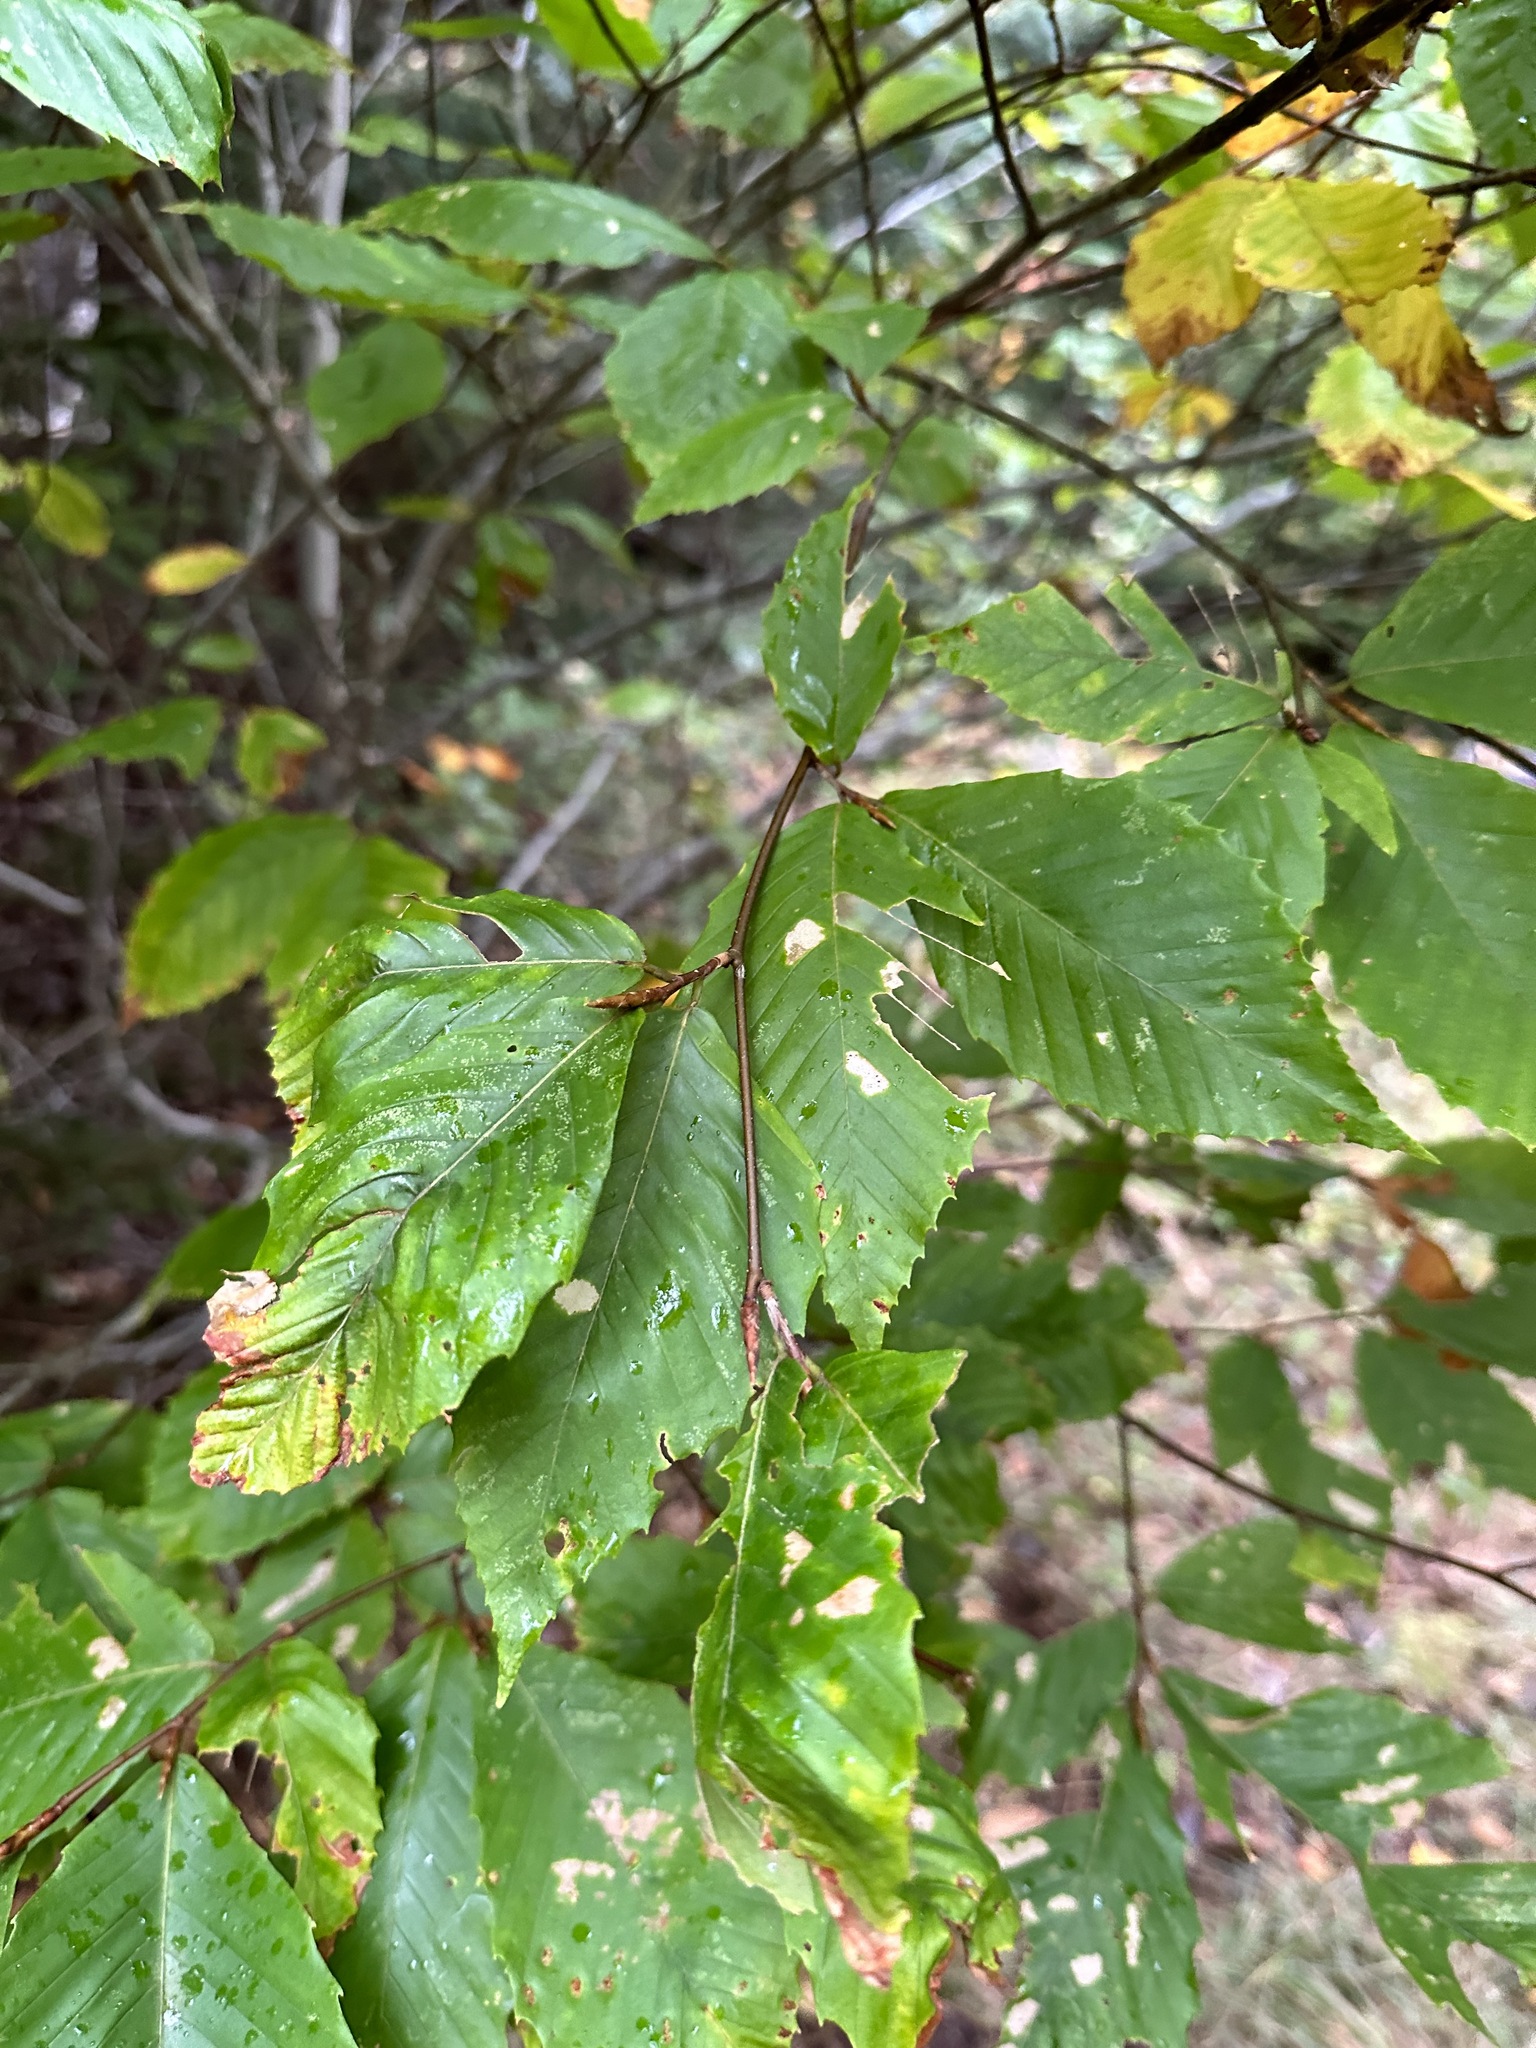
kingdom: Plantae
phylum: Tracheophyta
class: Magnoliopsida
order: Fagales
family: Fagaceae
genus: Fagus
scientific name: Fagus grandifolia
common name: American beech
